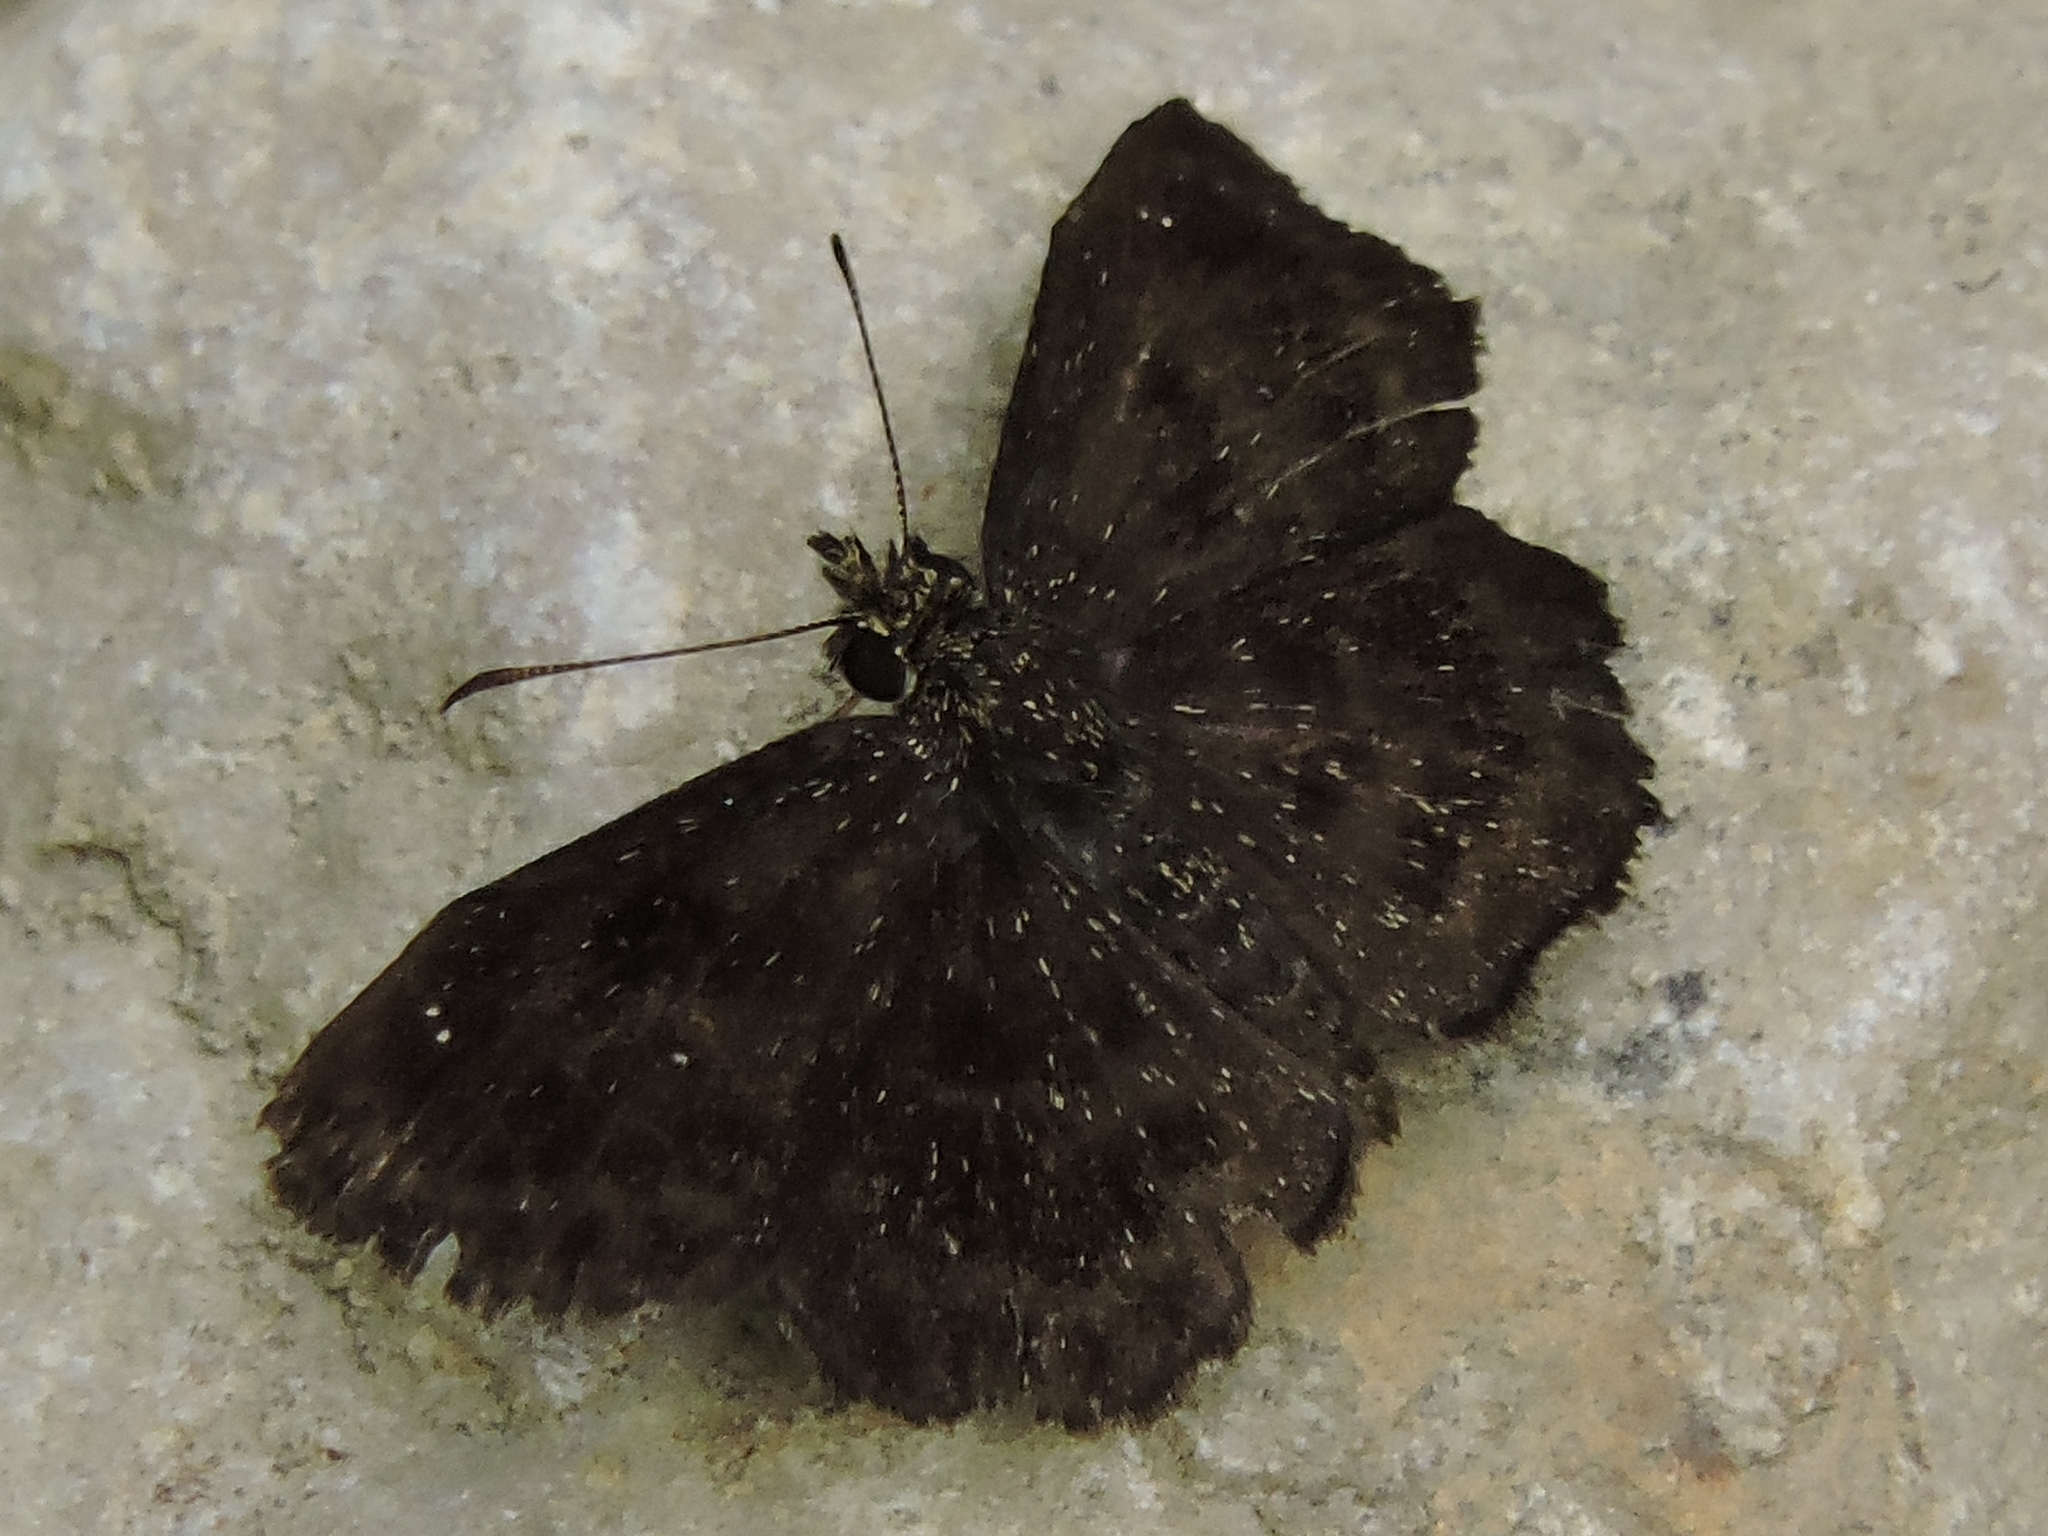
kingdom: Animalia
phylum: Arthropoda
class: Insecta
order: Lepidoptera
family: Hesperiidae
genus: Staphylus
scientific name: Staphylus mazans
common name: Mazans scallopwing
